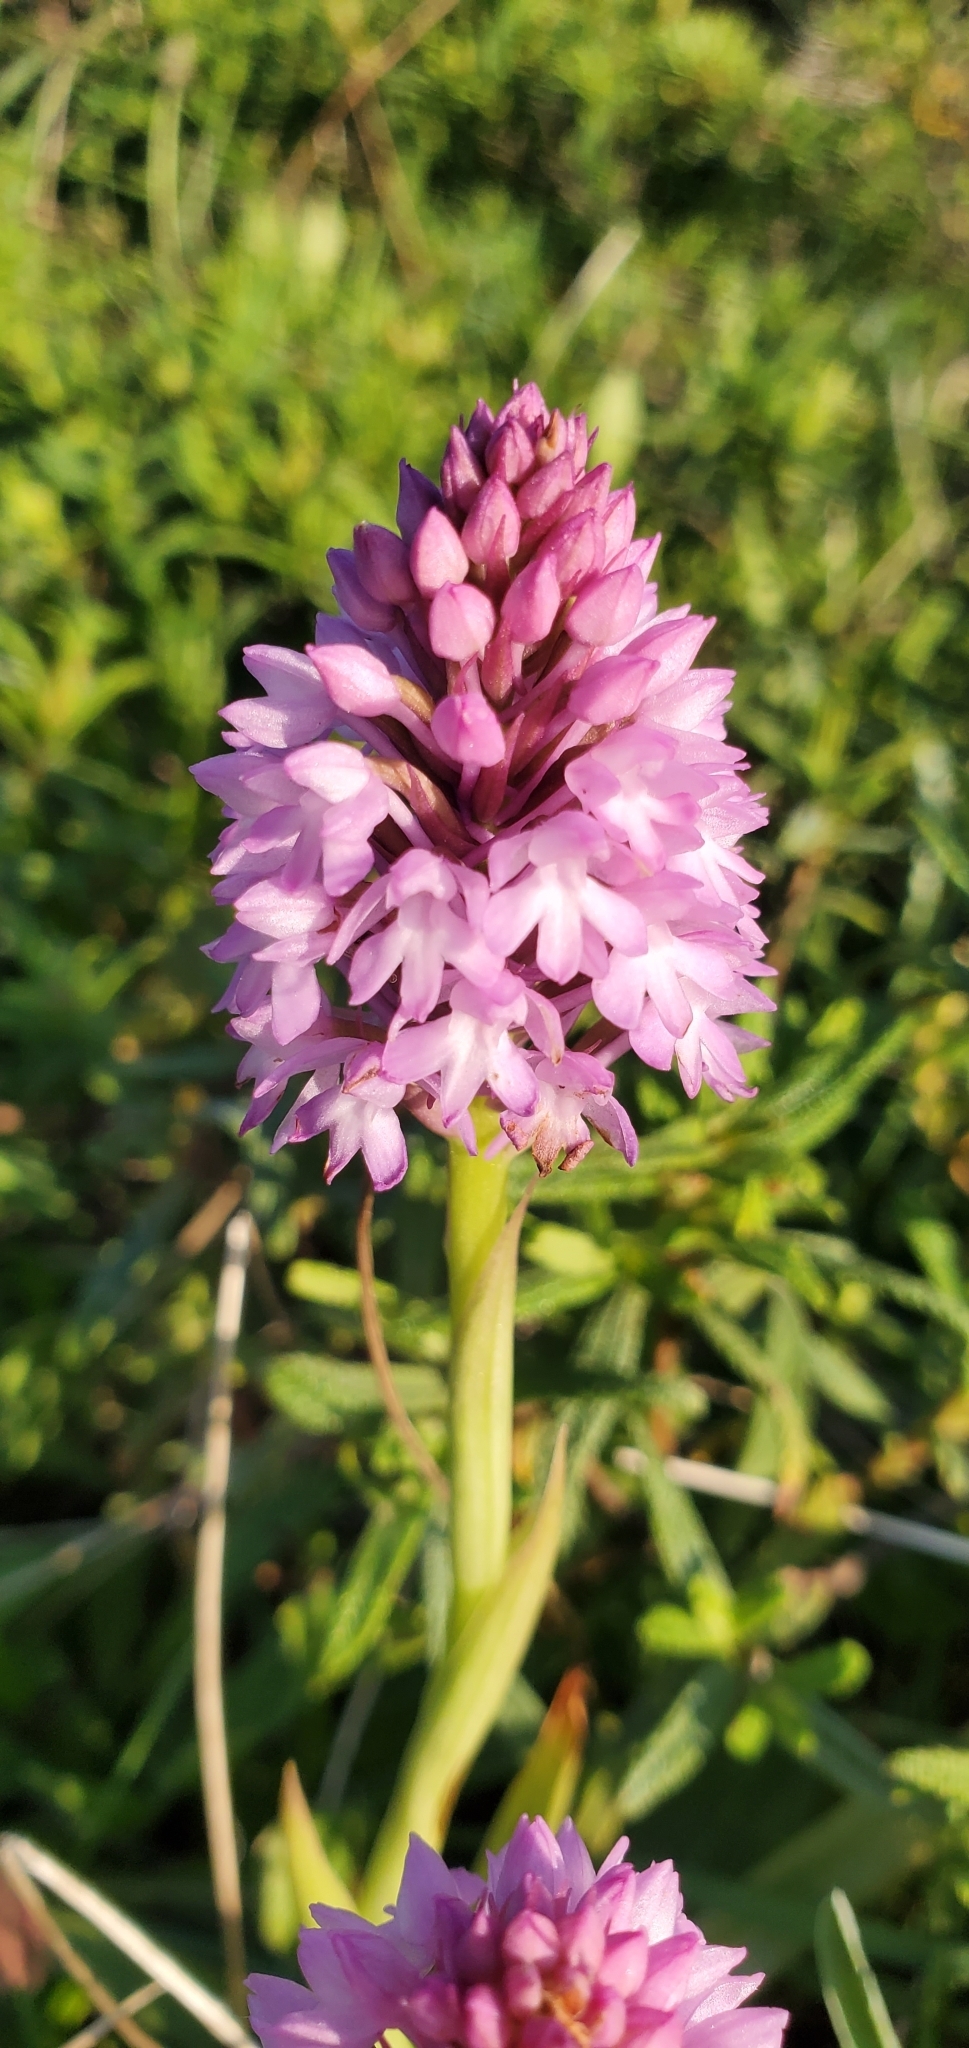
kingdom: Plantae
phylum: Tracheophyta
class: Liliopsida
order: Asparagales
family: Orchidaceae
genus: Anacamptis
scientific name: Anacamptis pyramidalis
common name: Pyramidal orchid
